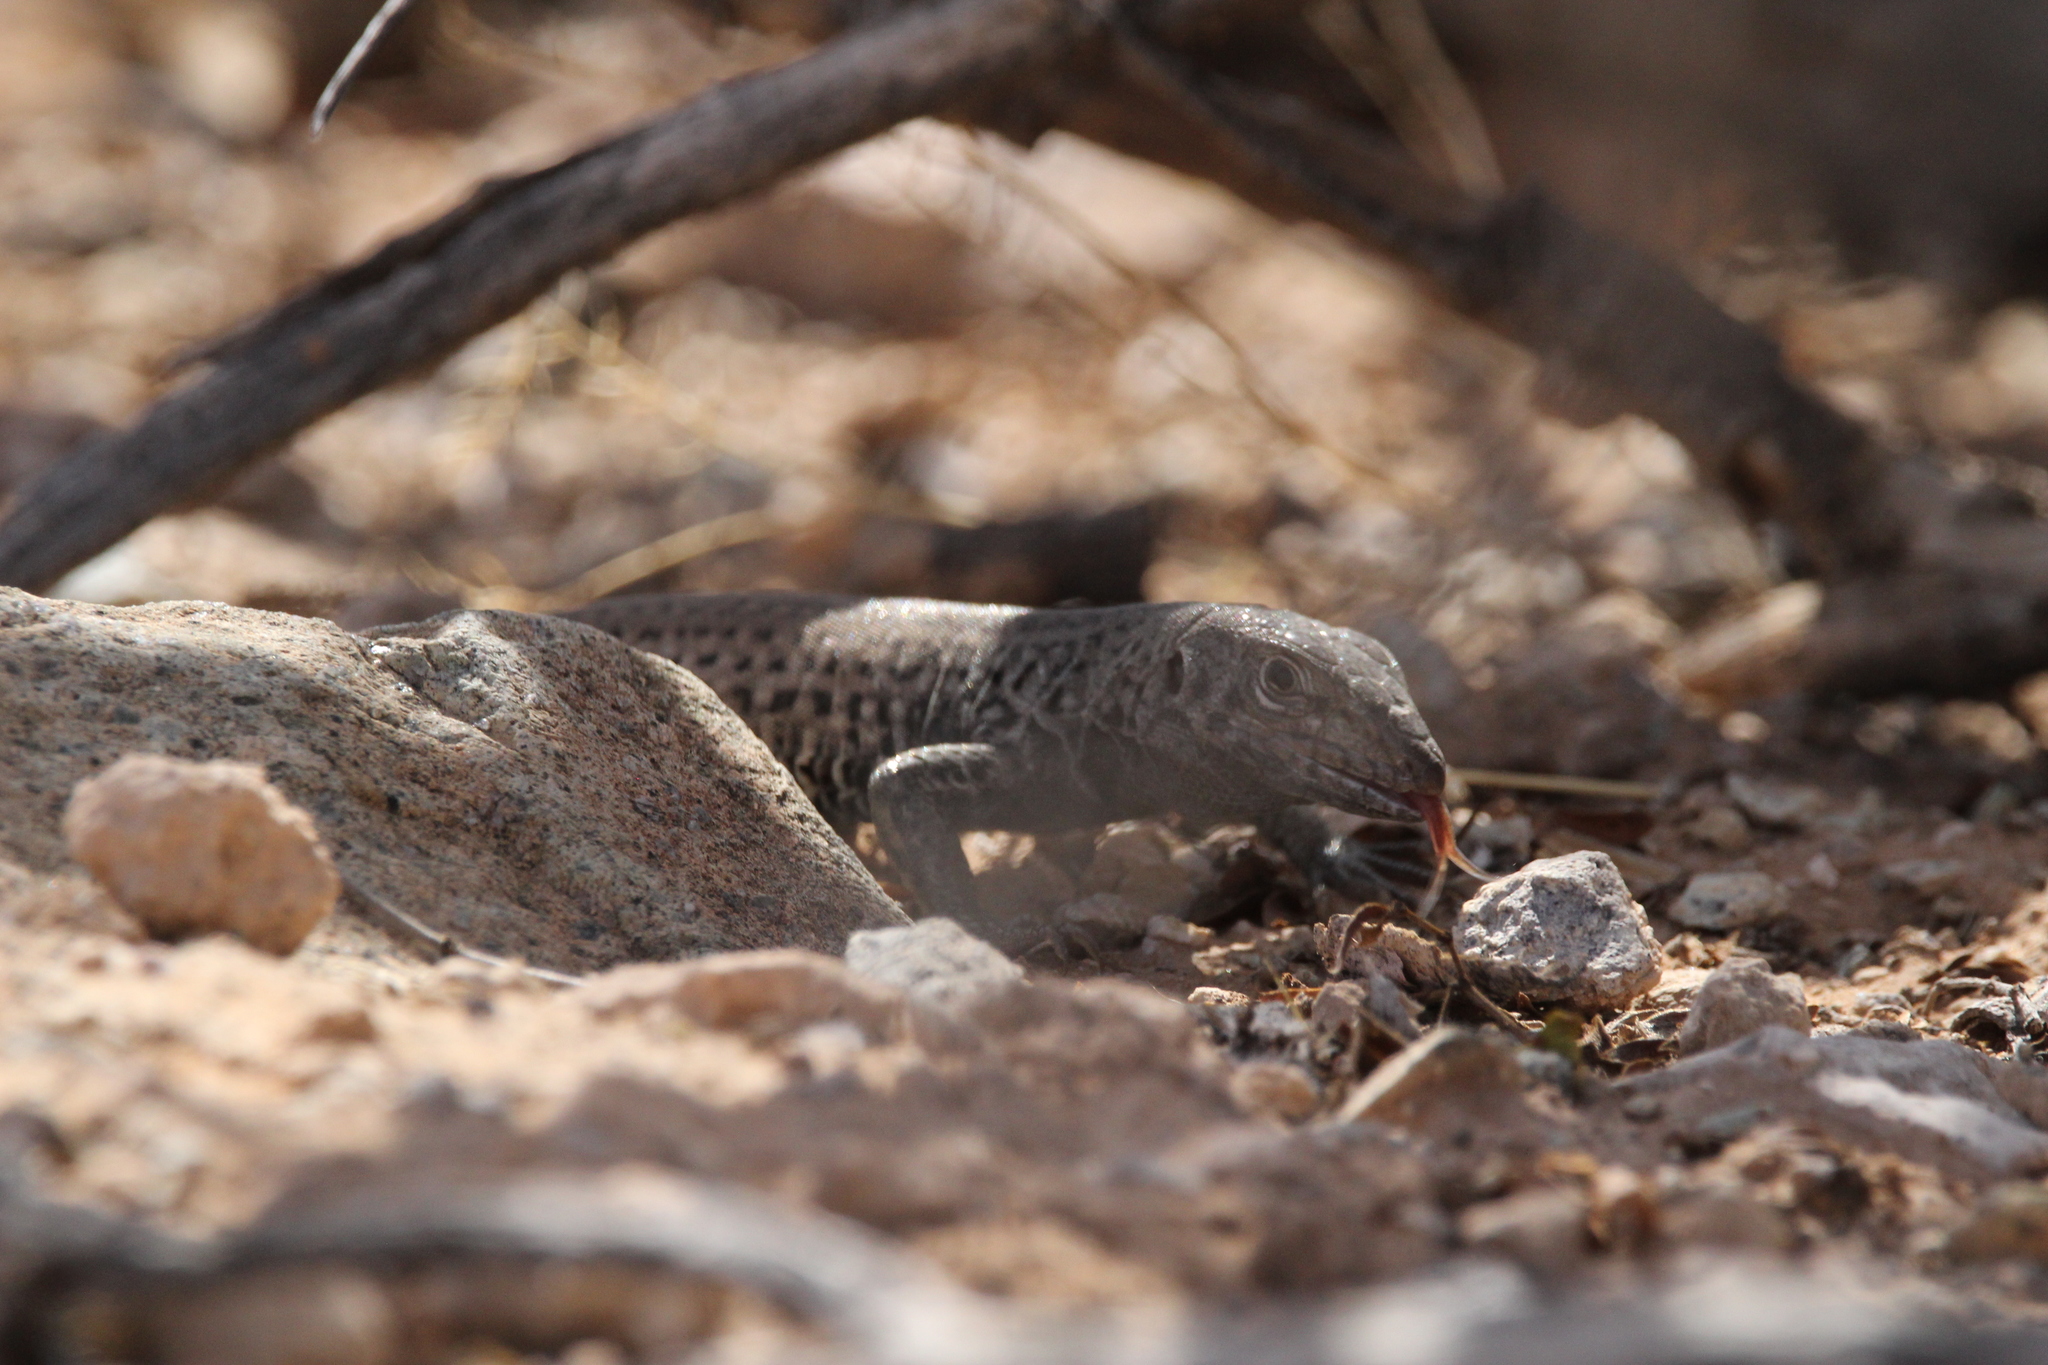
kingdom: Animalia
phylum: Chordata
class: Squamata
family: Teiidae
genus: Aspidoscelis
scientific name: Aspidoscelis tigris
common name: Tiger whiptail
